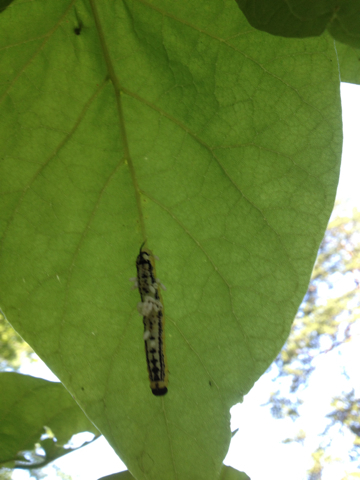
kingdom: Animalia
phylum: Arthropoda
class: Insecta
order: Lepidoptera
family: Sphingidae
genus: Ceratomia
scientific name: Ceratomia catalpae
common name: Catalpa hornworm
